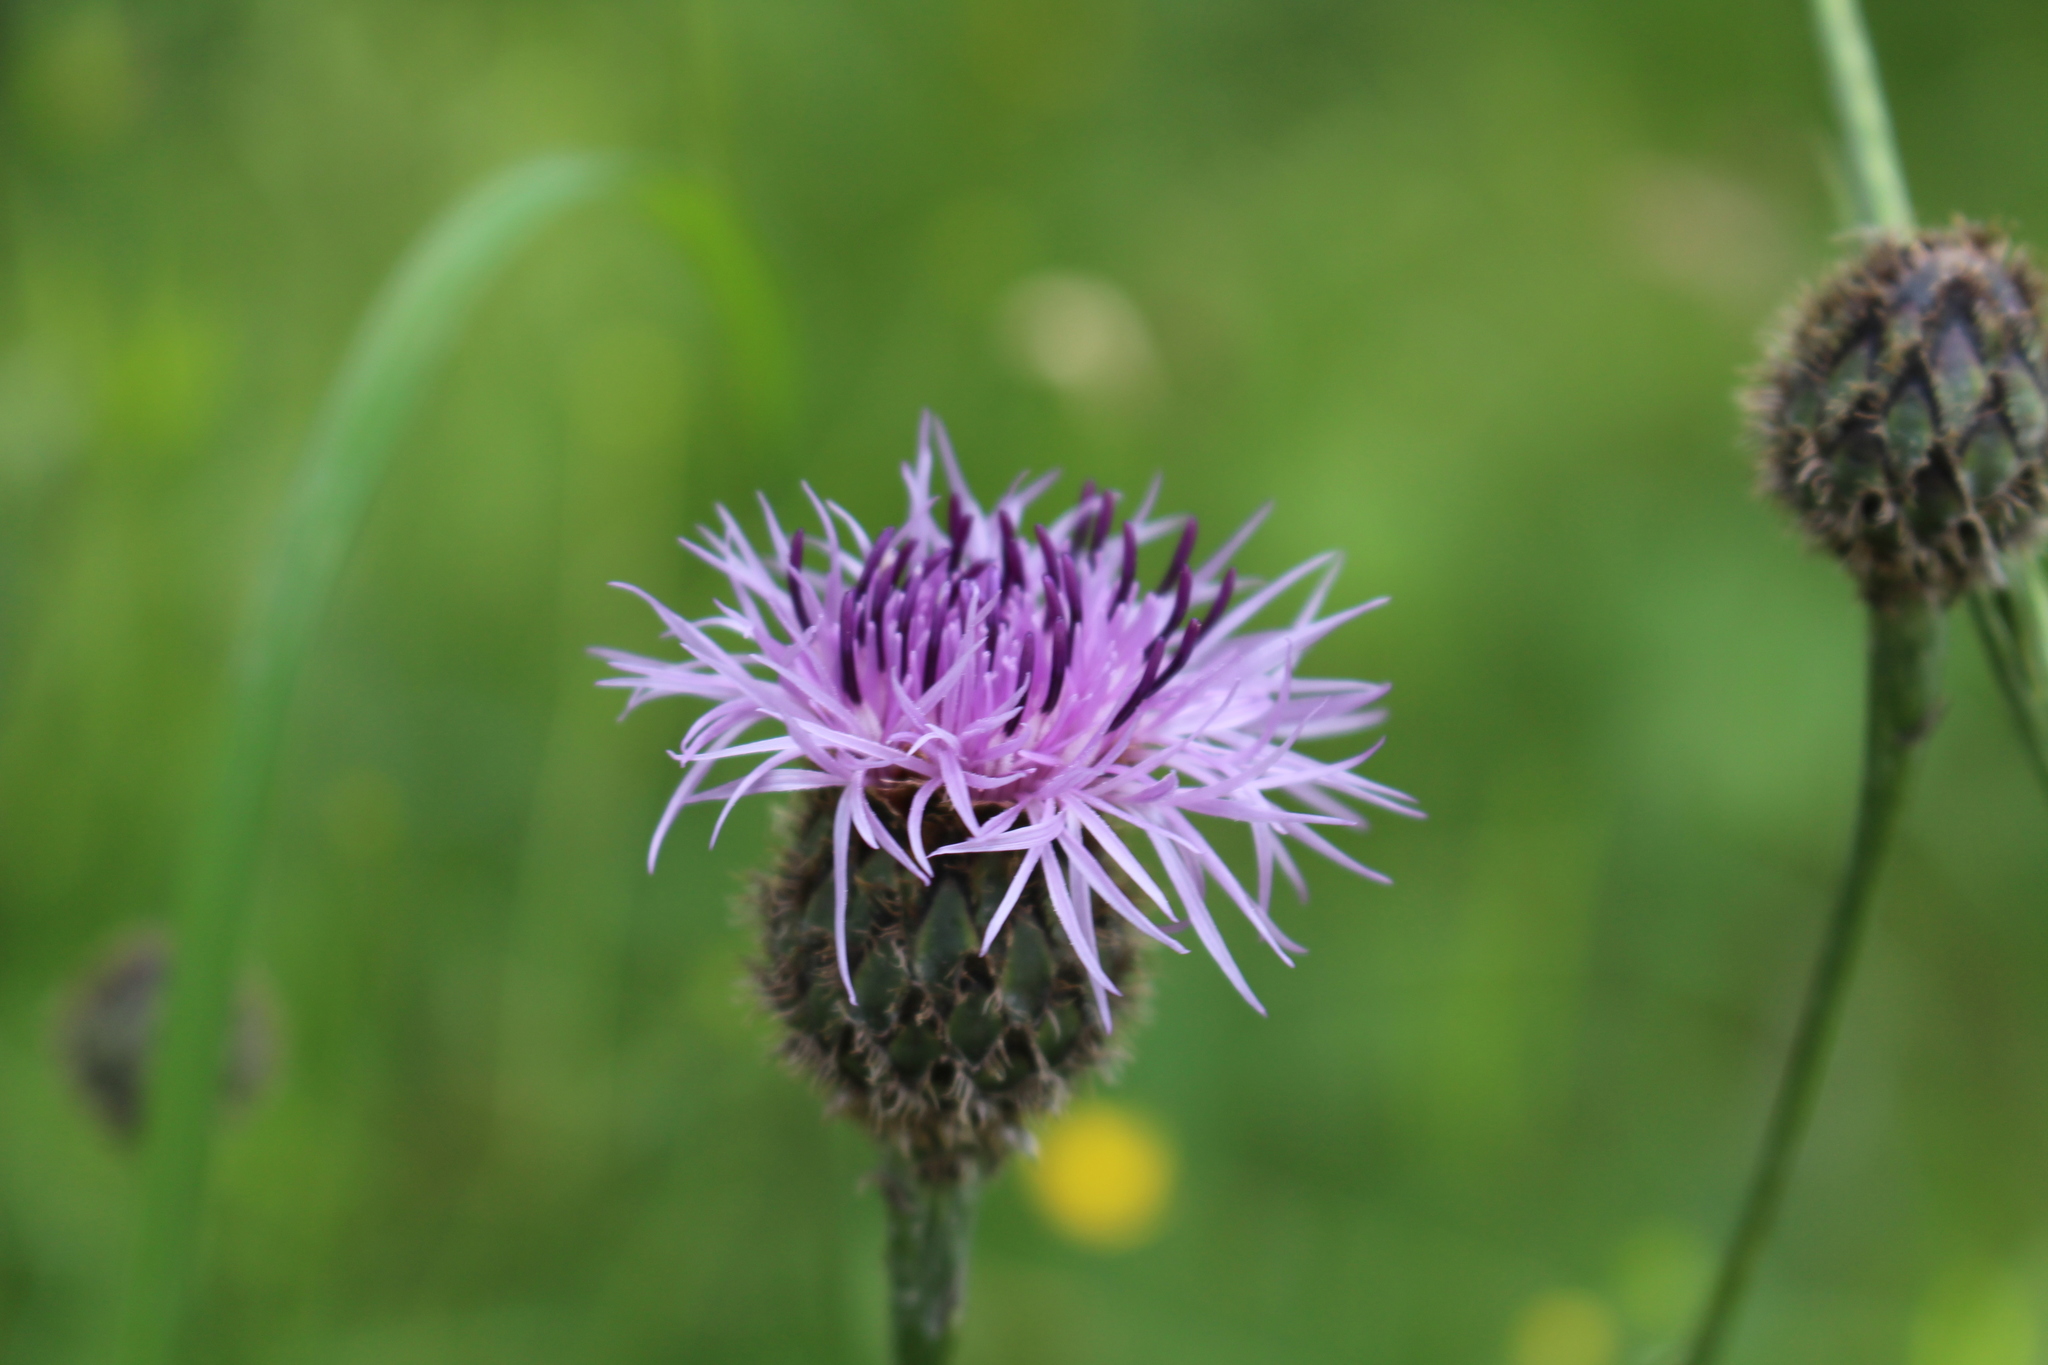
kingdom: Plantae
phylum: Tracheophyta
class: Magnoliopsida
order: Asterales
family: Asteraceae
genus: Centaurea
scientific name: Centaurea scabiosa
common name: Greater knapweed
